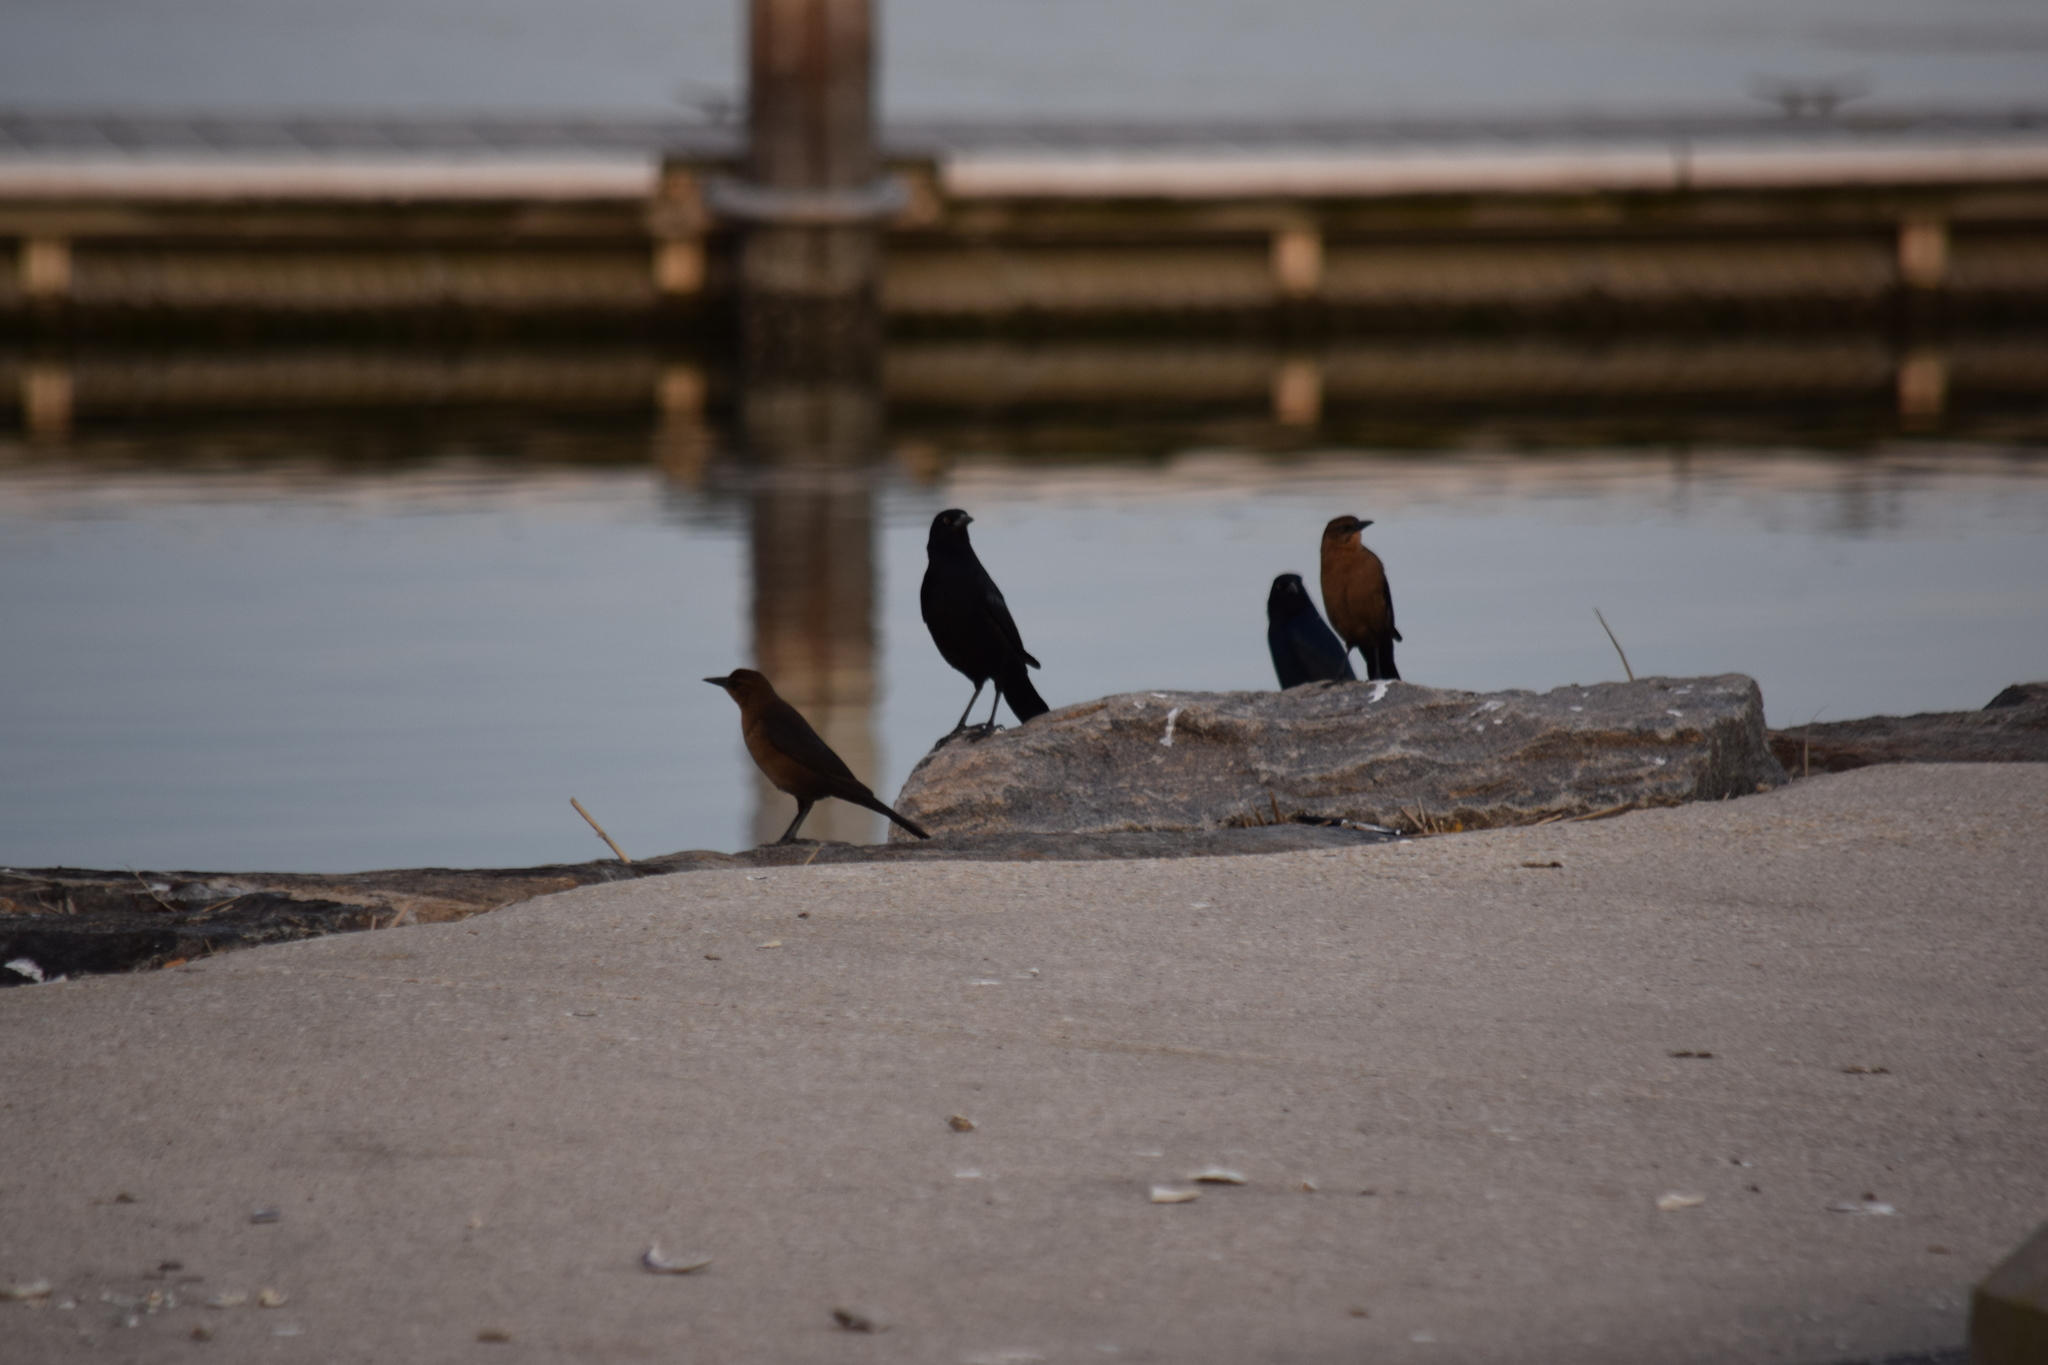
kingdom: Animalia
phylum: Chordata
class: Aves
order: Passeriformes
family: Icteridae
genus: Quiscalus
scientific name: Quiscalus major
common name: Boat-tailed grackle
